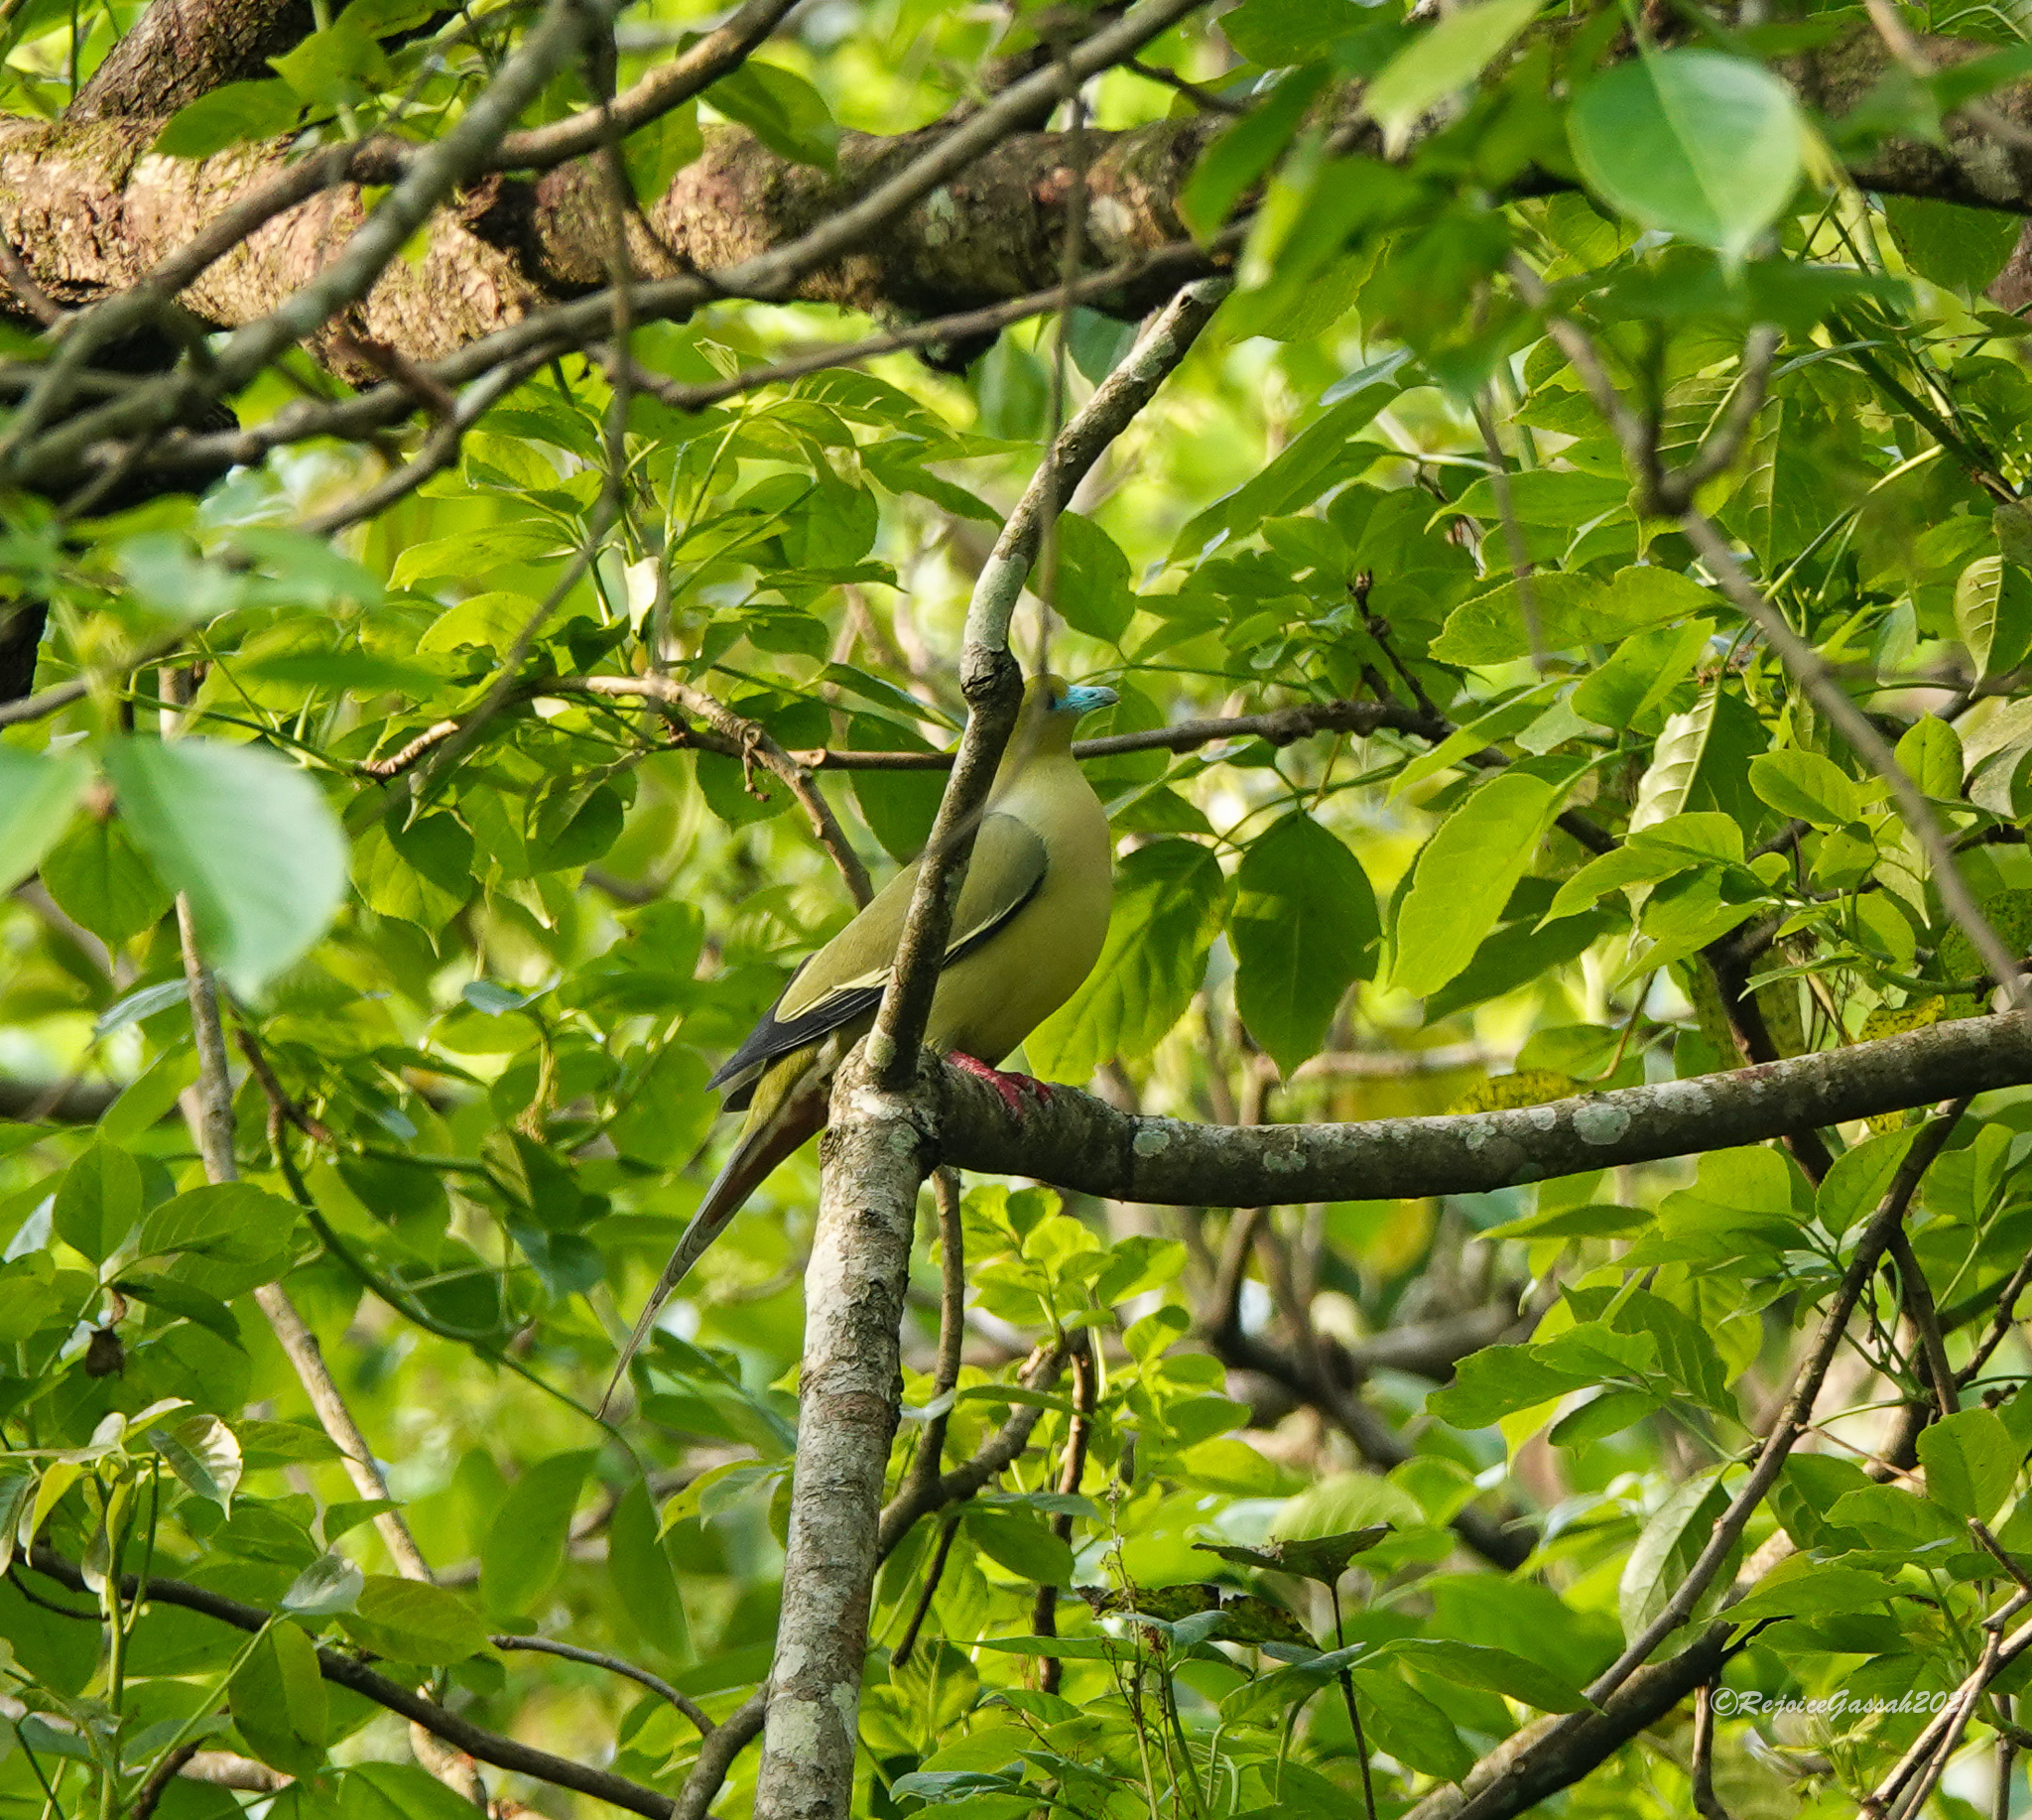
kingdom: Animalia
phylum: Chordata
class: Aves
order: Columbiformes
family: Columbidae
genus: Treron
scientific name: Treron apicauda
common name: Pin-tailed green pigeon
